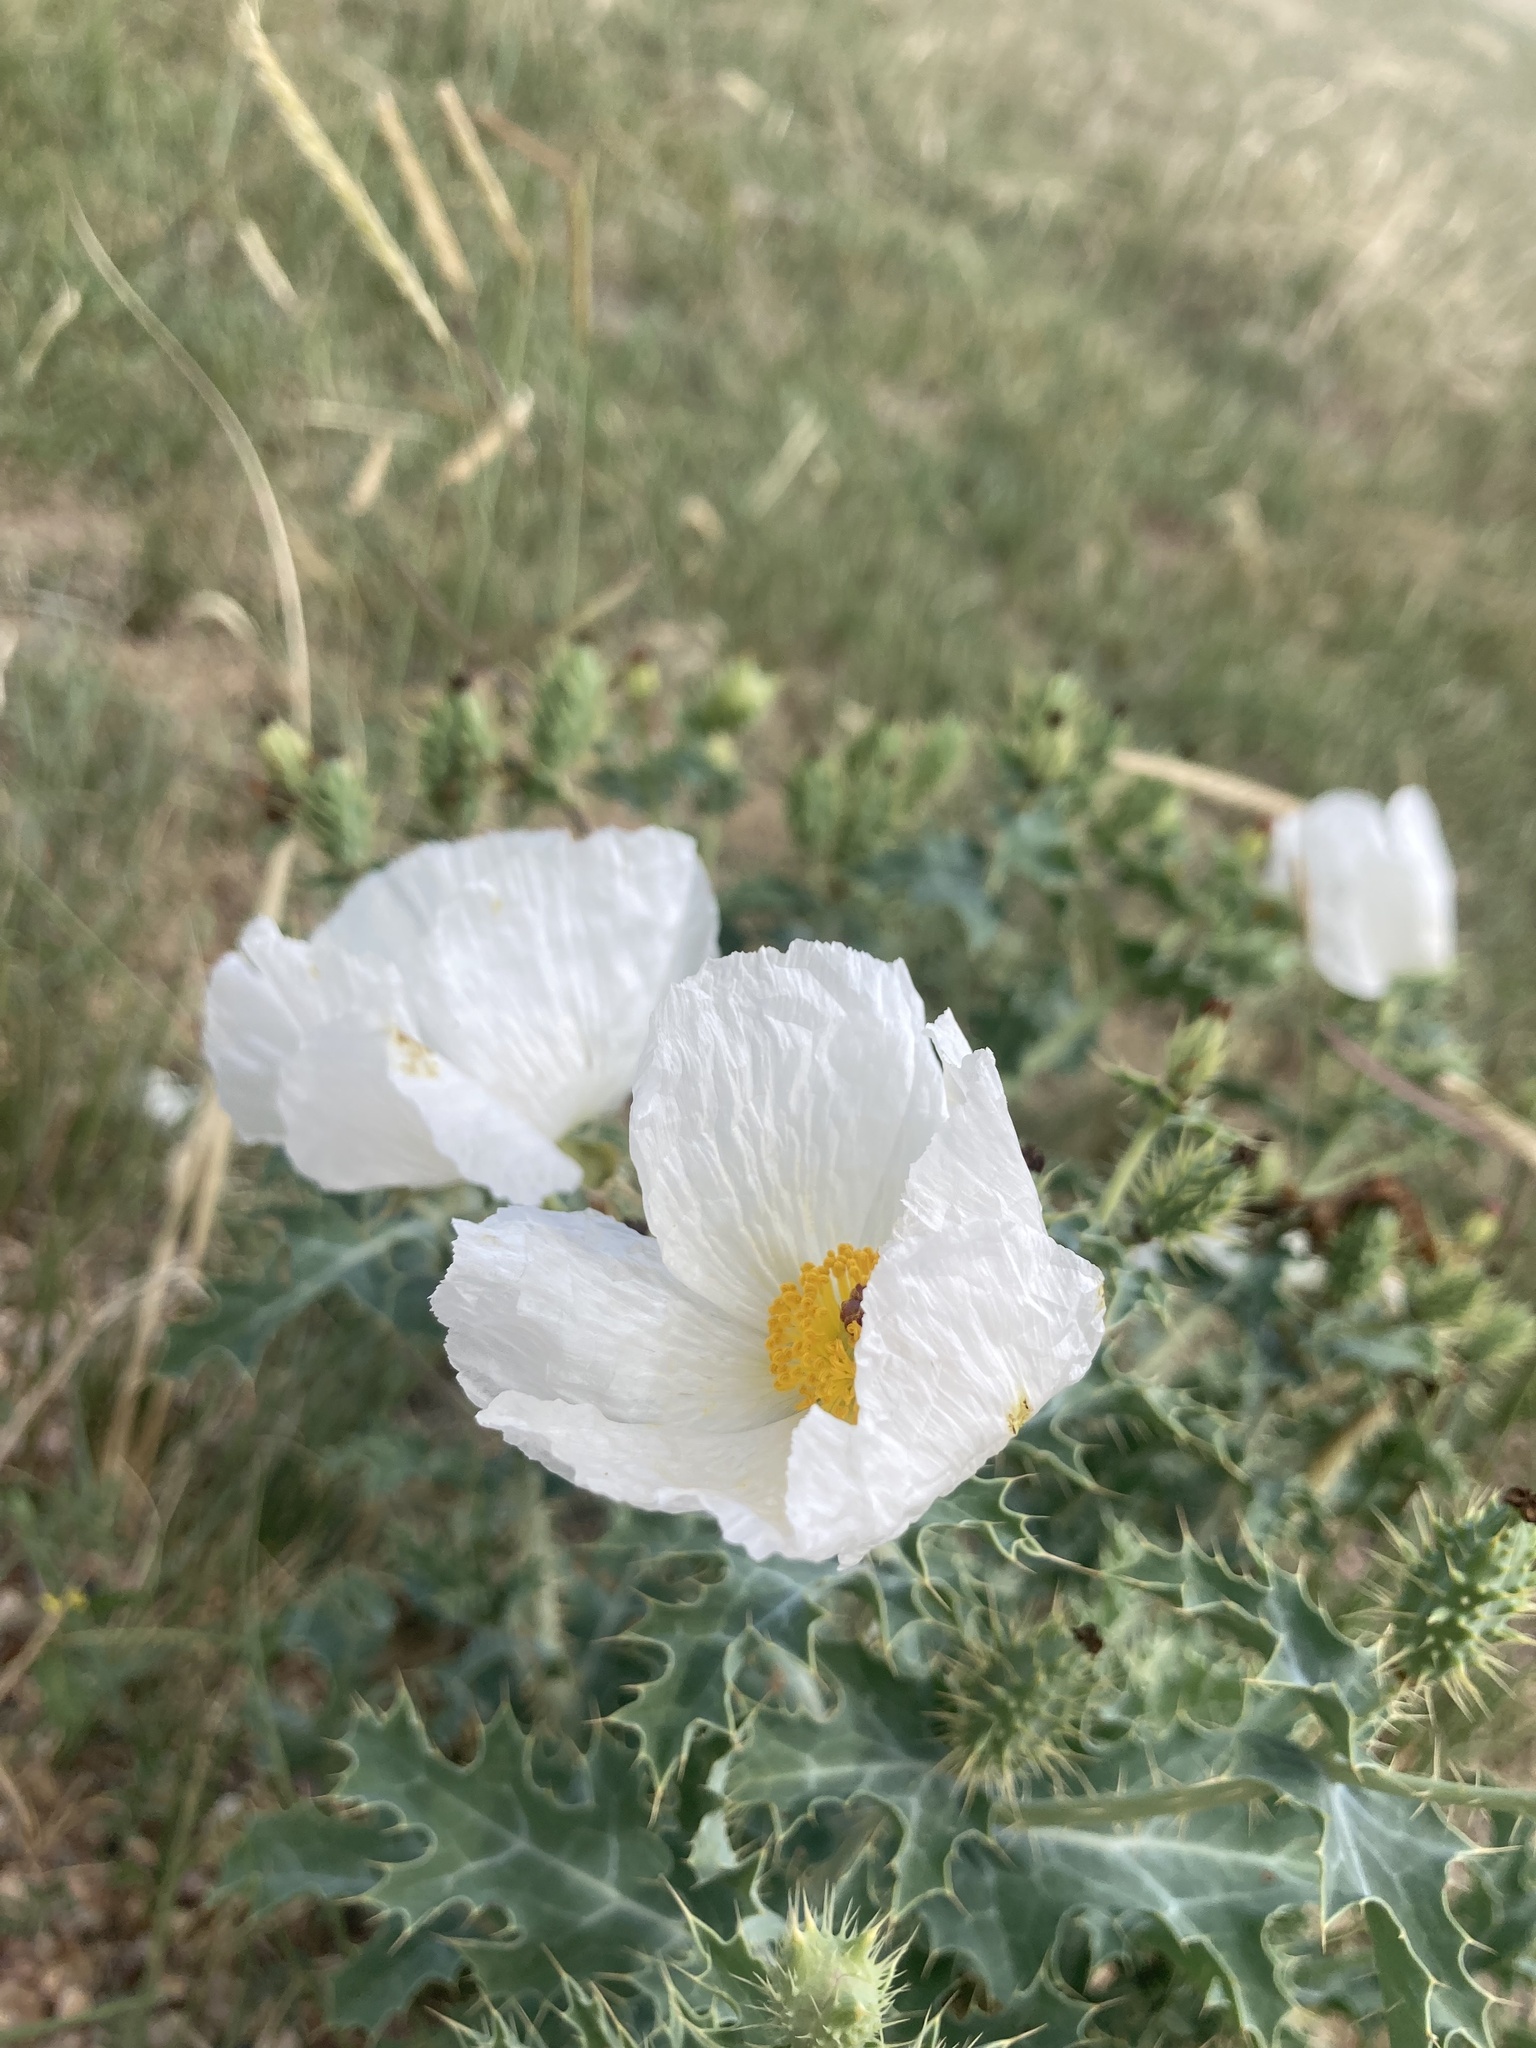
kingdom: Plantae
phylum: Tracheophyta
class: Magnoliopsida
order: Ranunculales
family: Papaveraceae
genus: Argemone
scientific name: Argemone polyanthemos
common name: Plains prickly-poppy
